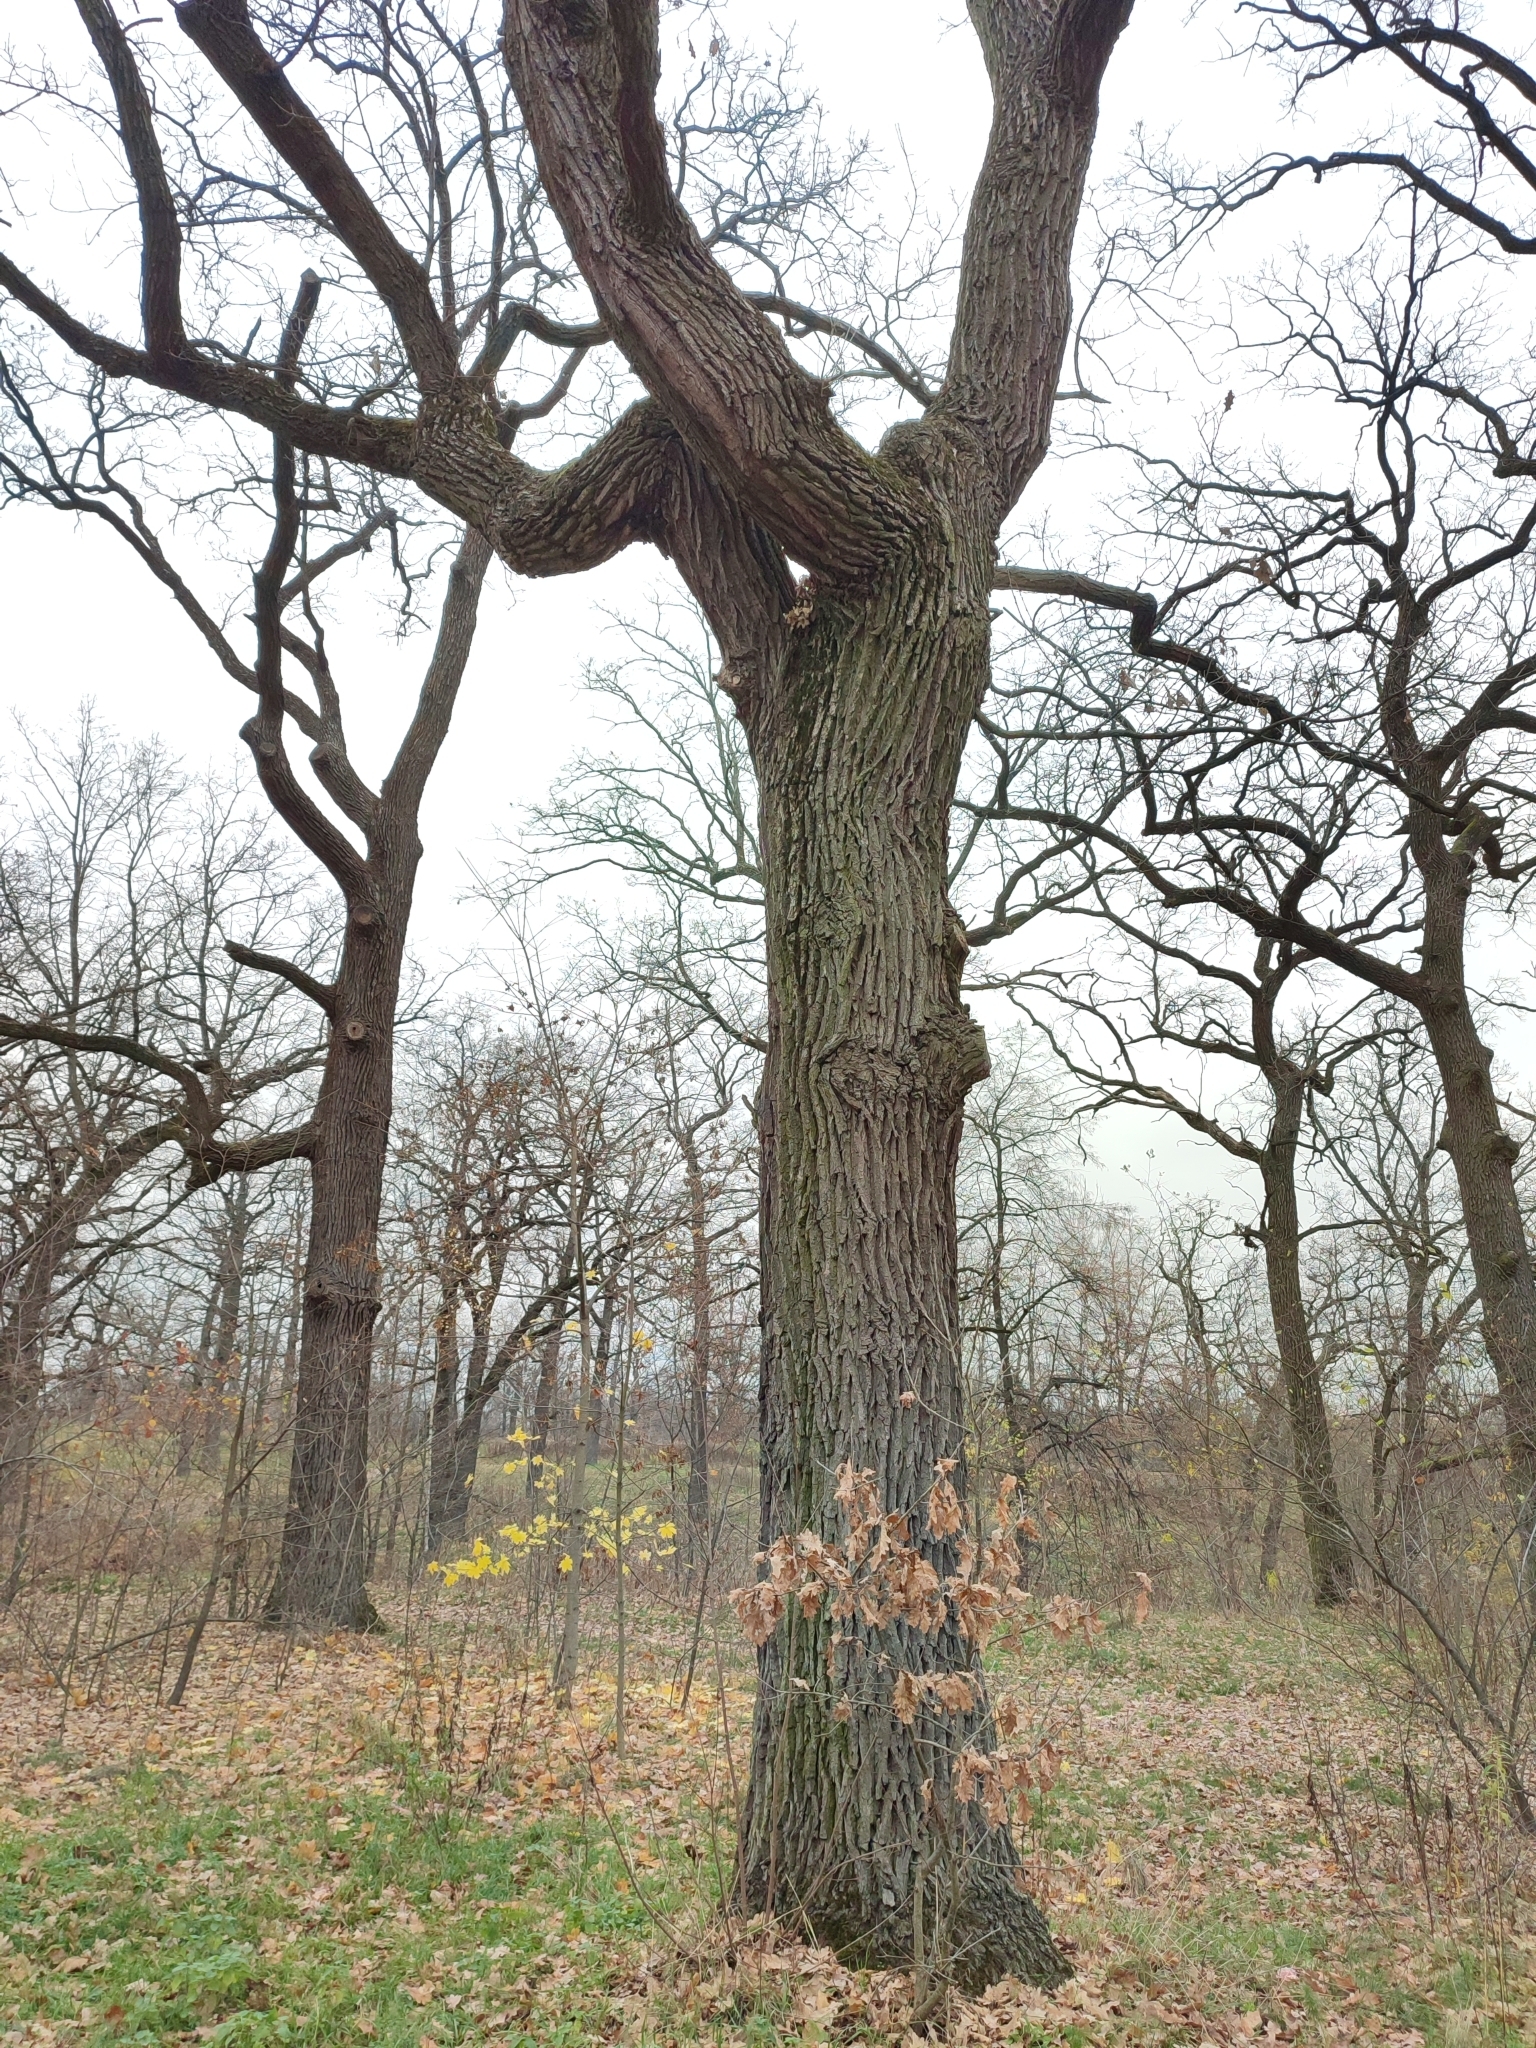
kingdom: Plantae
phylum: Tracheophyta
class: Magnoliopsida
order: Fagales
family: Fagaceae
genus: Quercus
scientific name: Quercus robur
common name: Pedunculate oak
